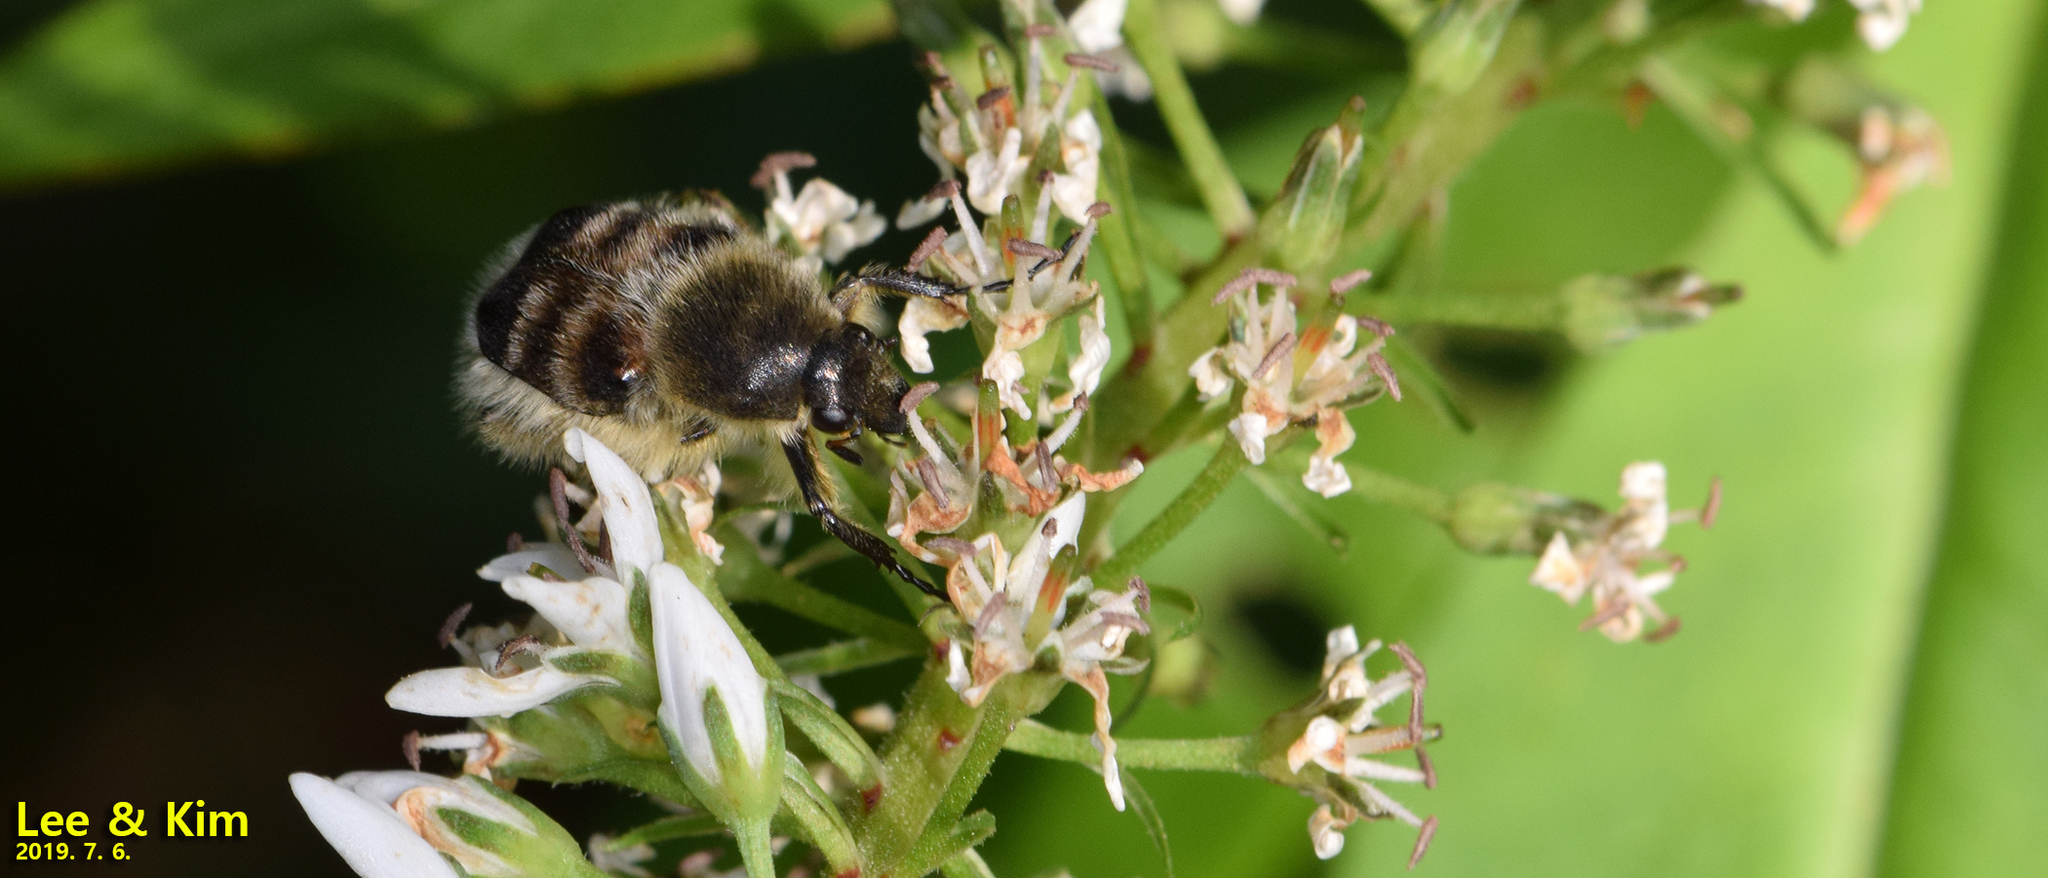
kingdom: Animalia
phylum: Arthropoda
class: Insecta
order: Coleoptera
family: Scarabaeidae
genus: Lasiotrichius
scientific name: Lasiotrichius succinctus
